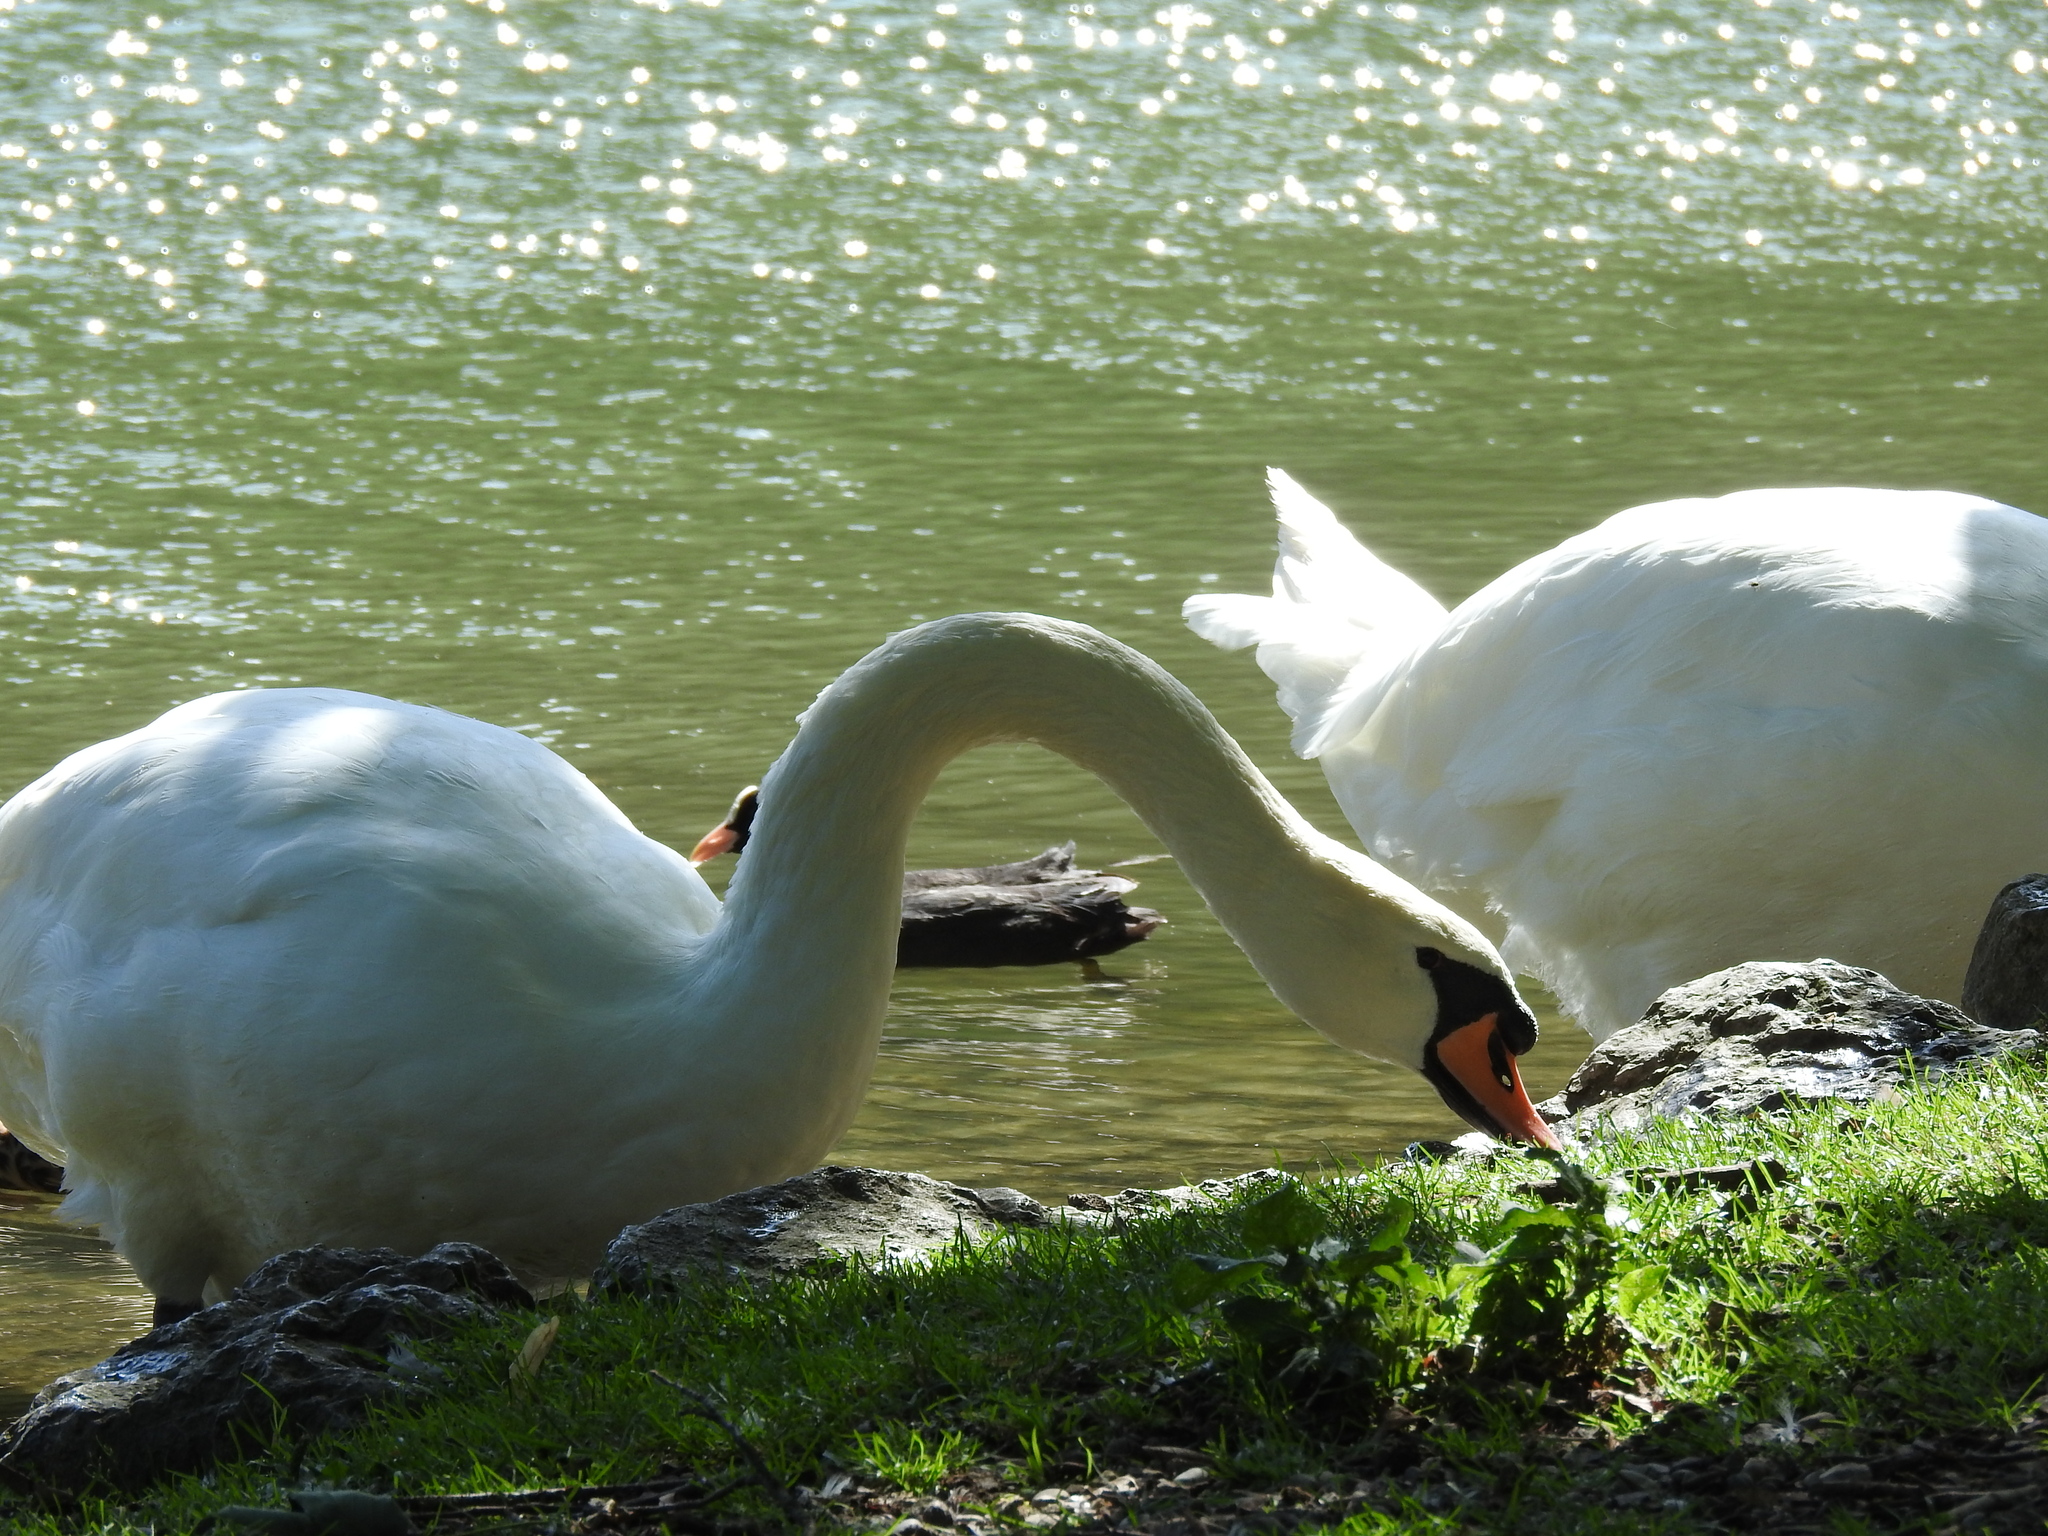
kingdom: Animalia
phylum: Chordata
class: Aves
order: Anseriformes
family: Anatidae
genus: Cygnus
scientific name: Cygnus olor
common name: Mute swan
